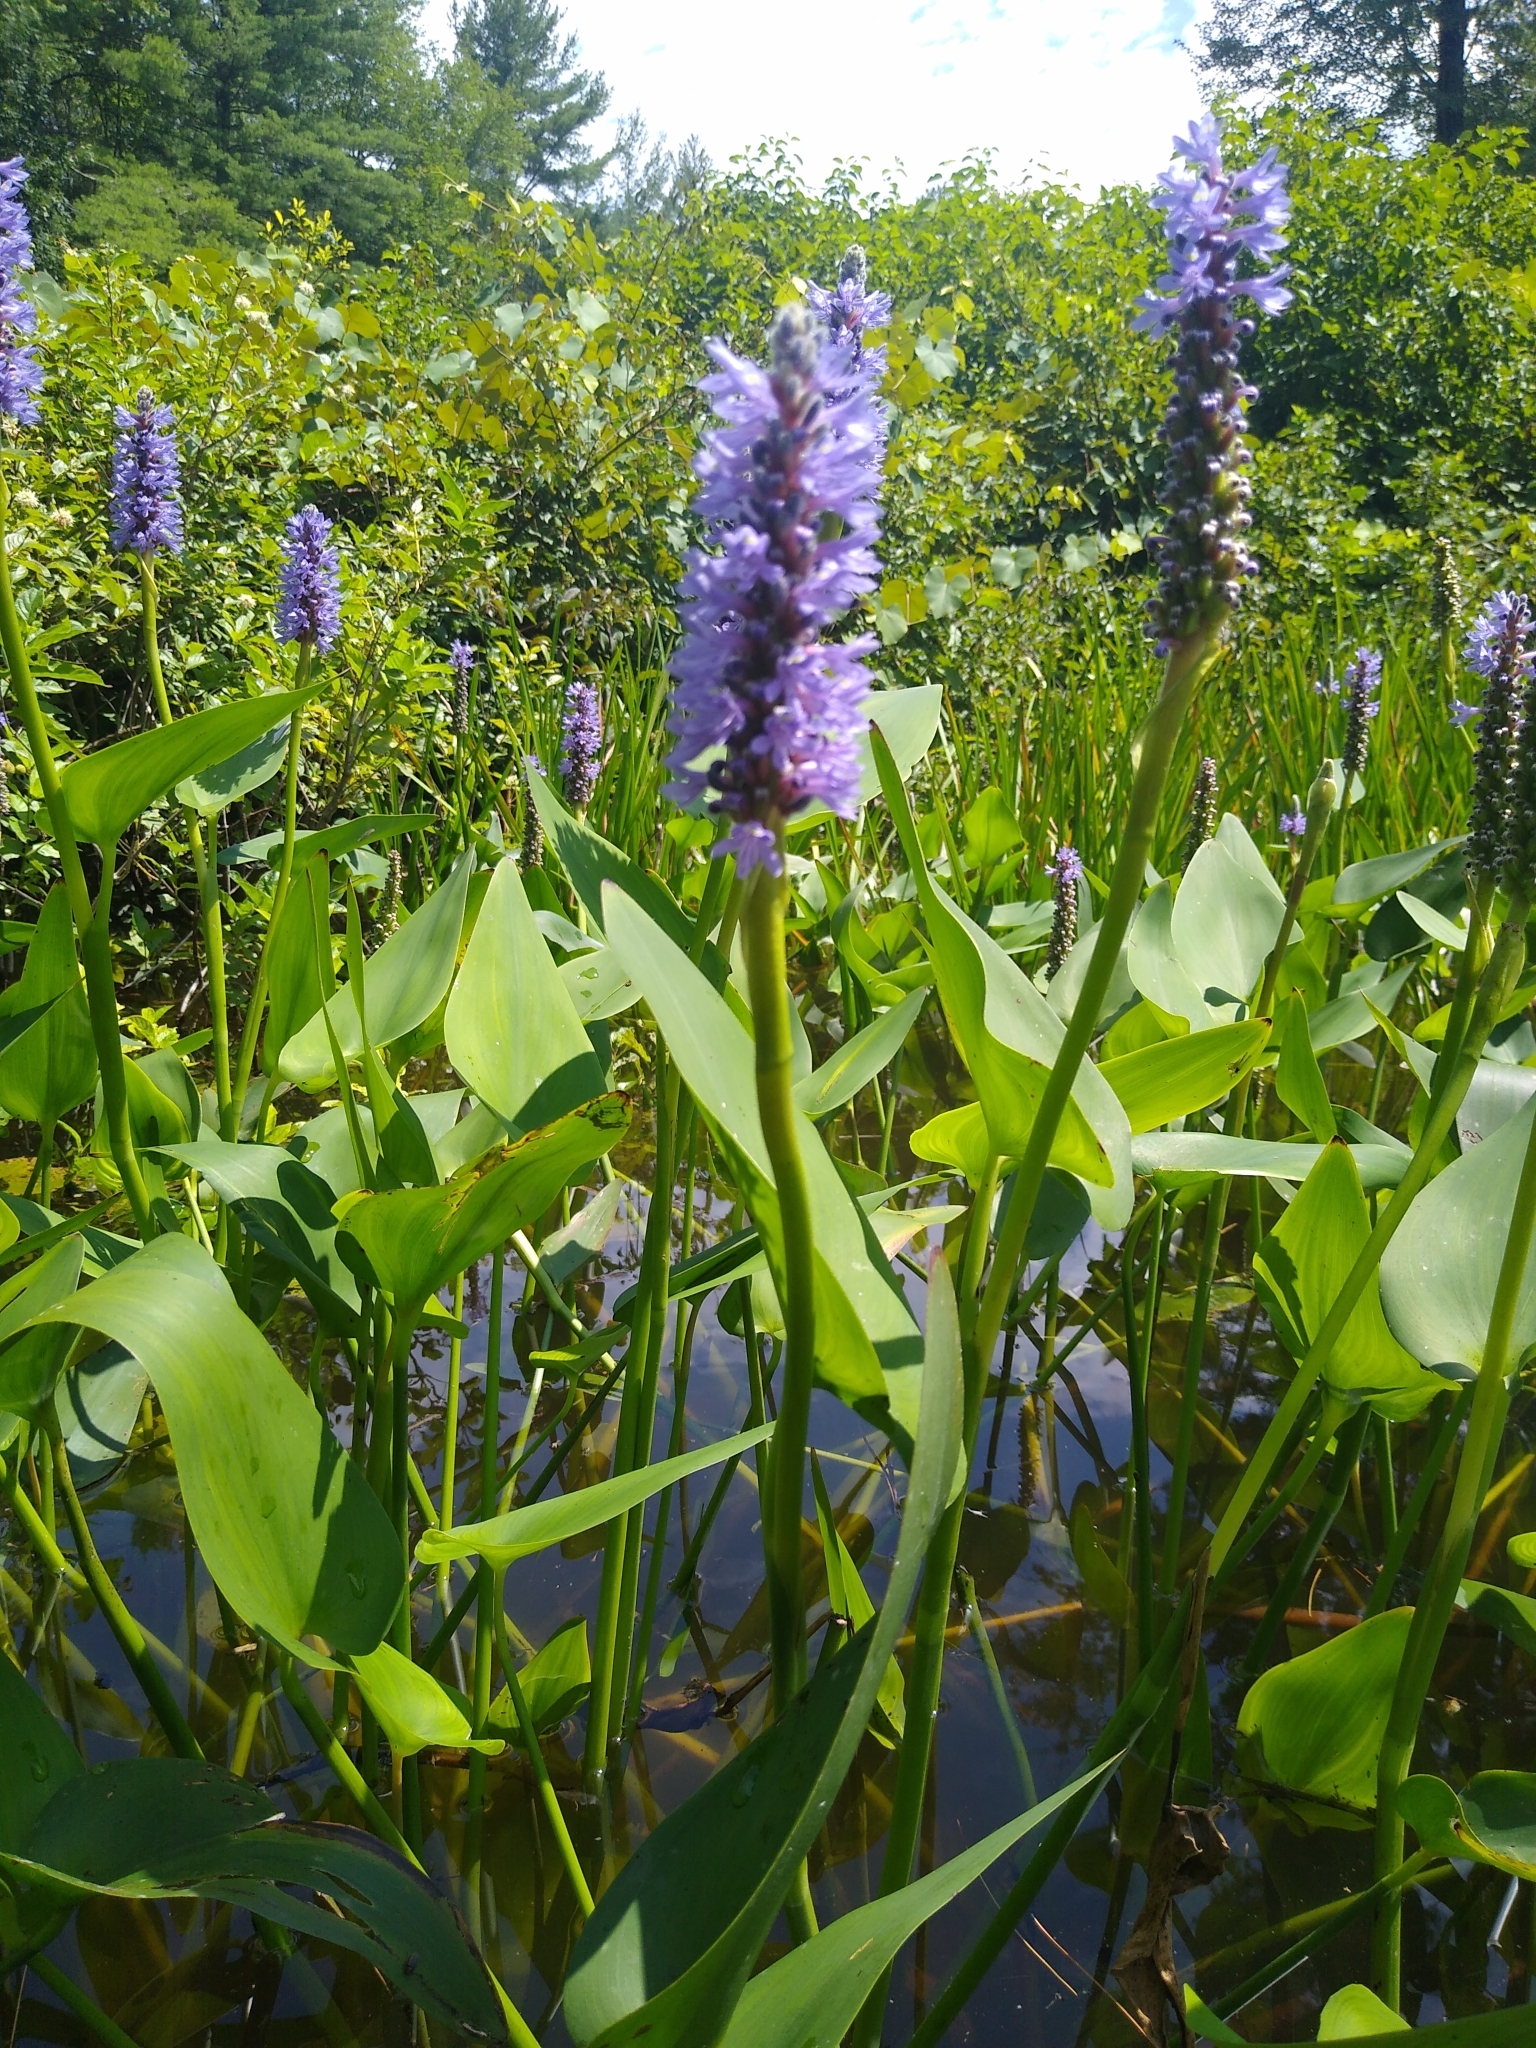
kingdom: Plantae
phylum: Tracheophyta
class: Liliopsida
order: Commelinales
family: Pontederiaceae
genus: Pontederia
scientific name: Pontederia cordata
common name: Pickerelweed
